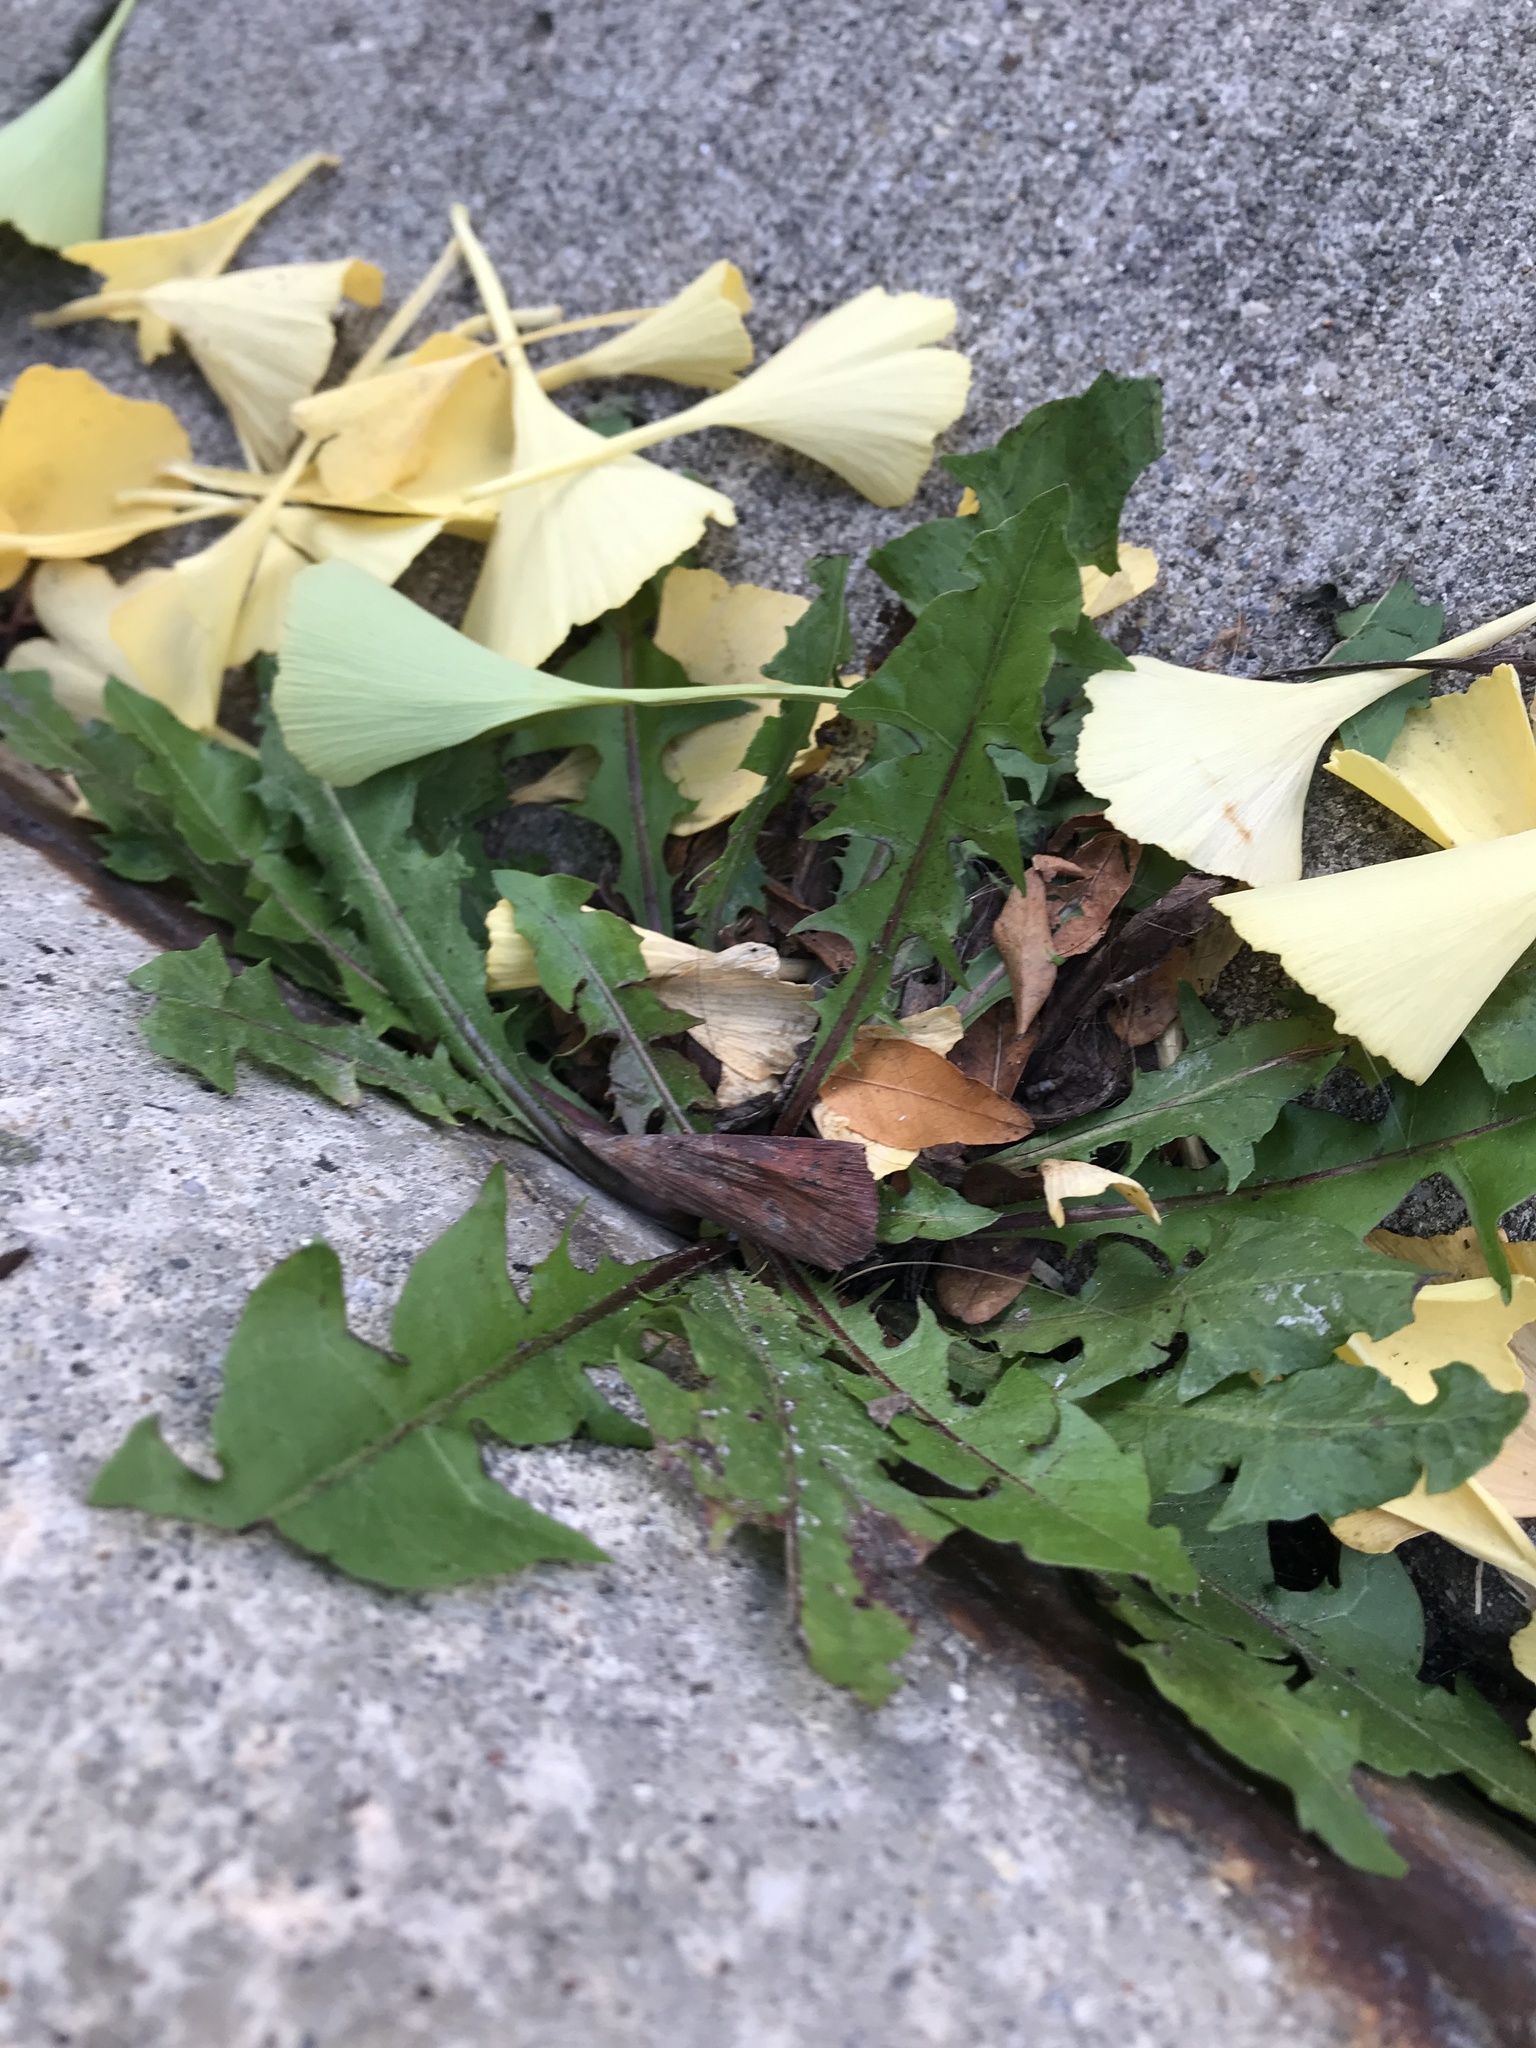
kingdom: Plantae
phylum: Tracheophyta
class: Magnoliopsida
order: Asterales
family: Asteraceae
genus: Taraxacum
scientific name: Taraxacum officinale
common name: Common dandelion
